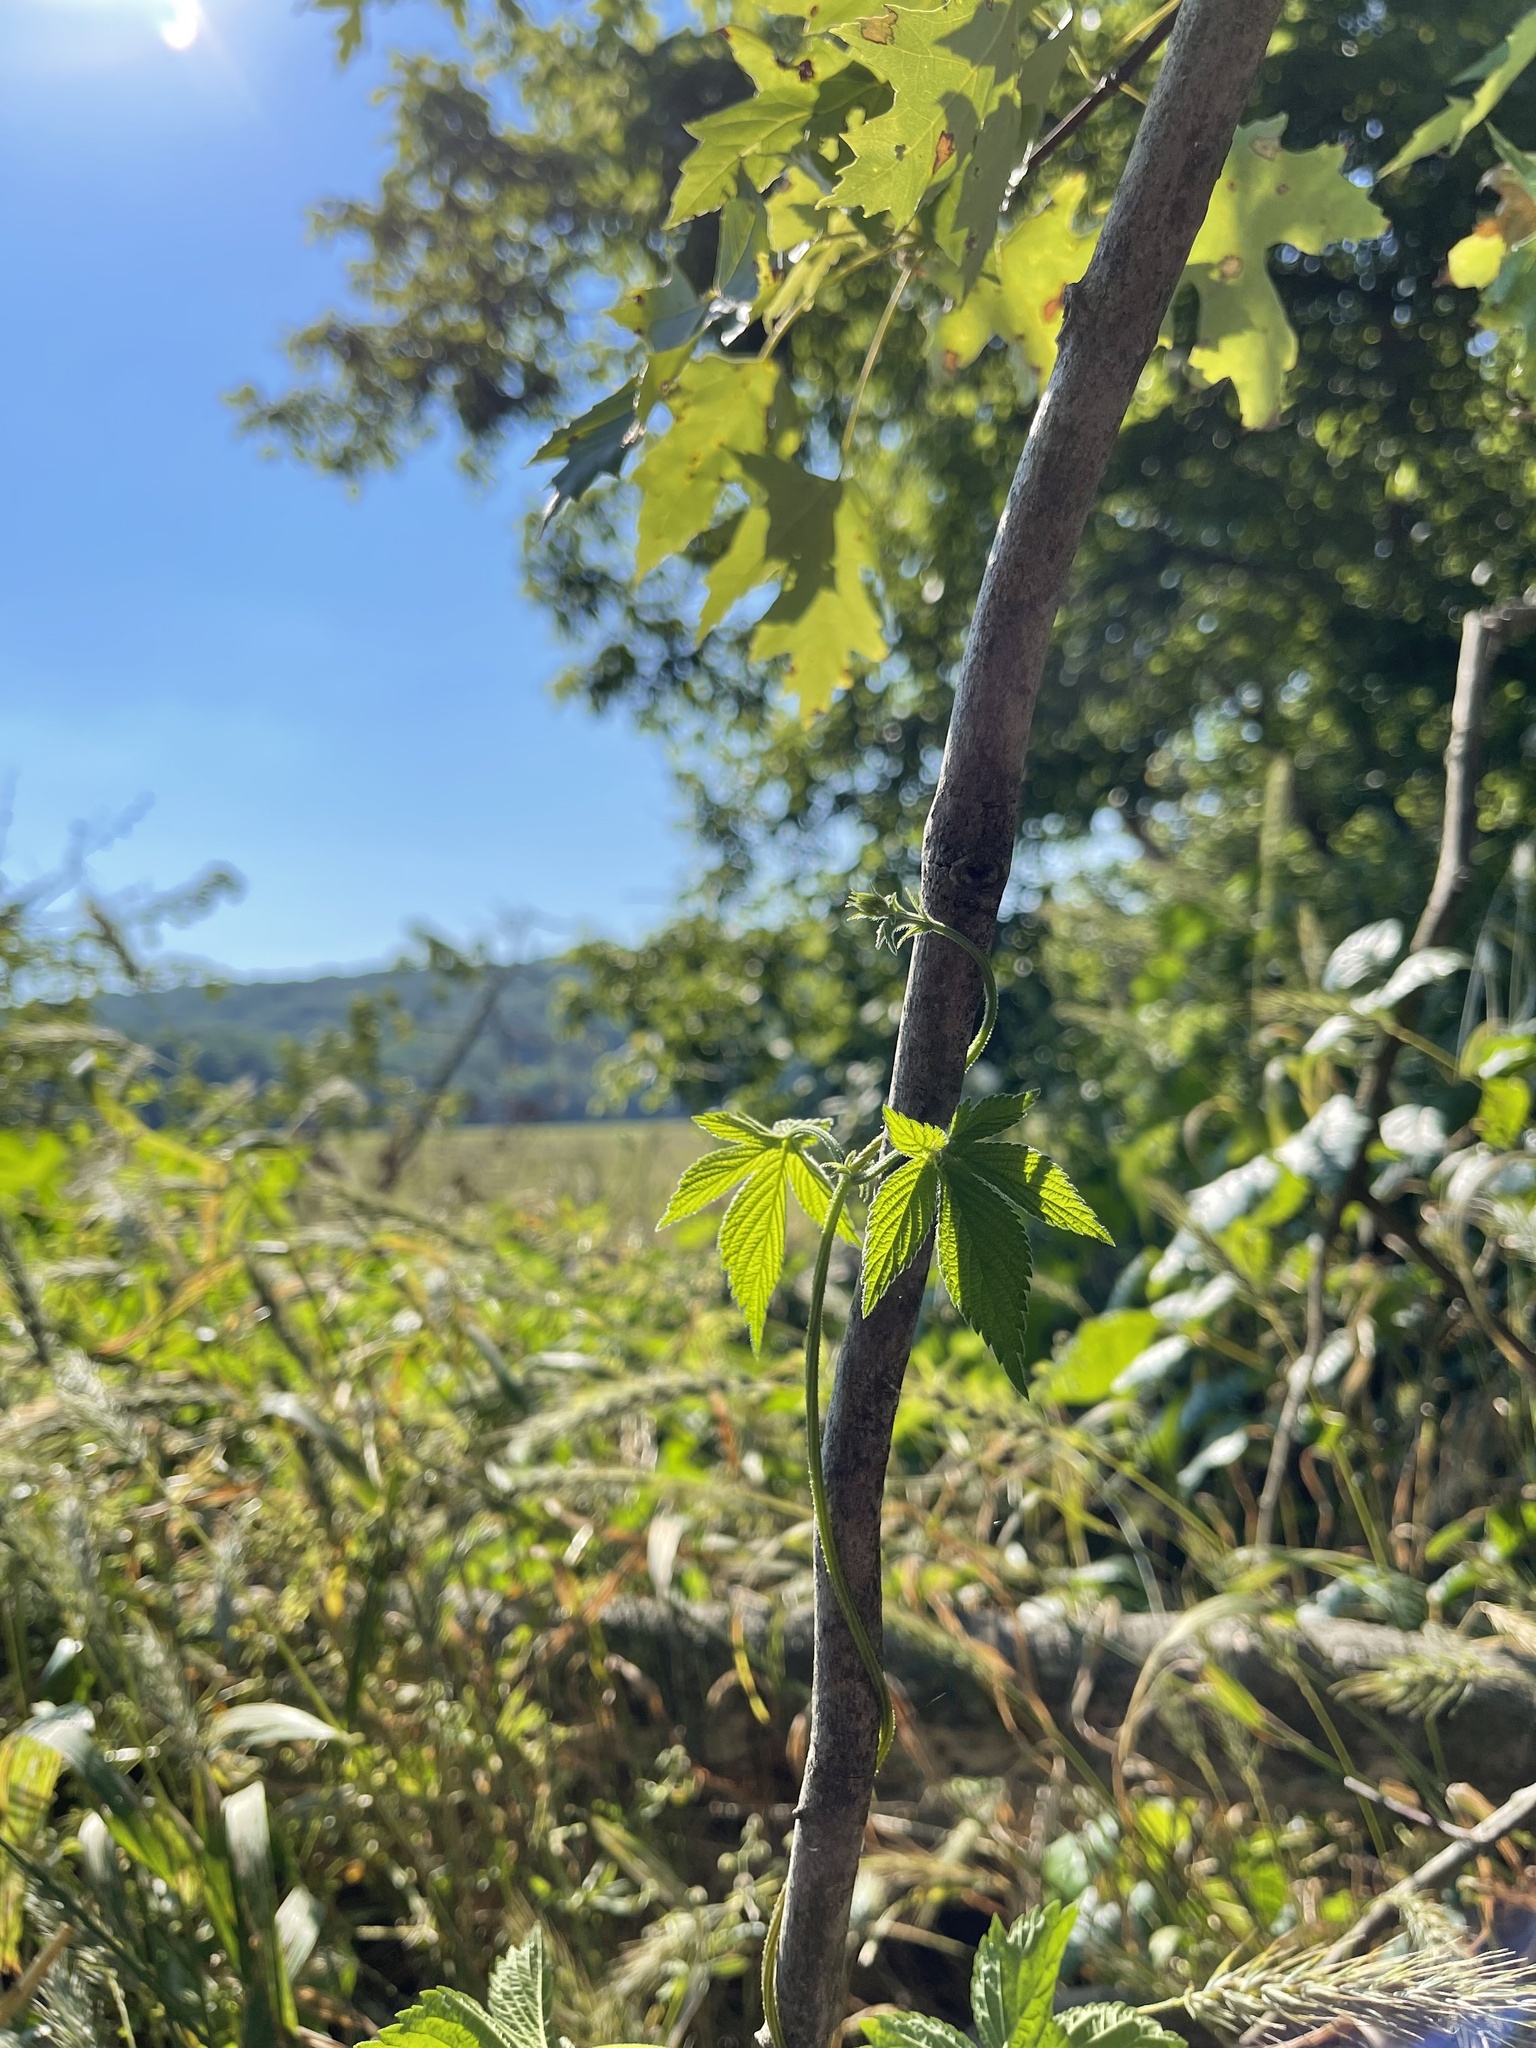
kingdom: Plantae
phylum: Tracheophyta
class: Magnoliopsida
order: Rosales
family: Cannabaceae
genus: Humulus
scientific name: Humulus scandens
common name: Japanese hop
